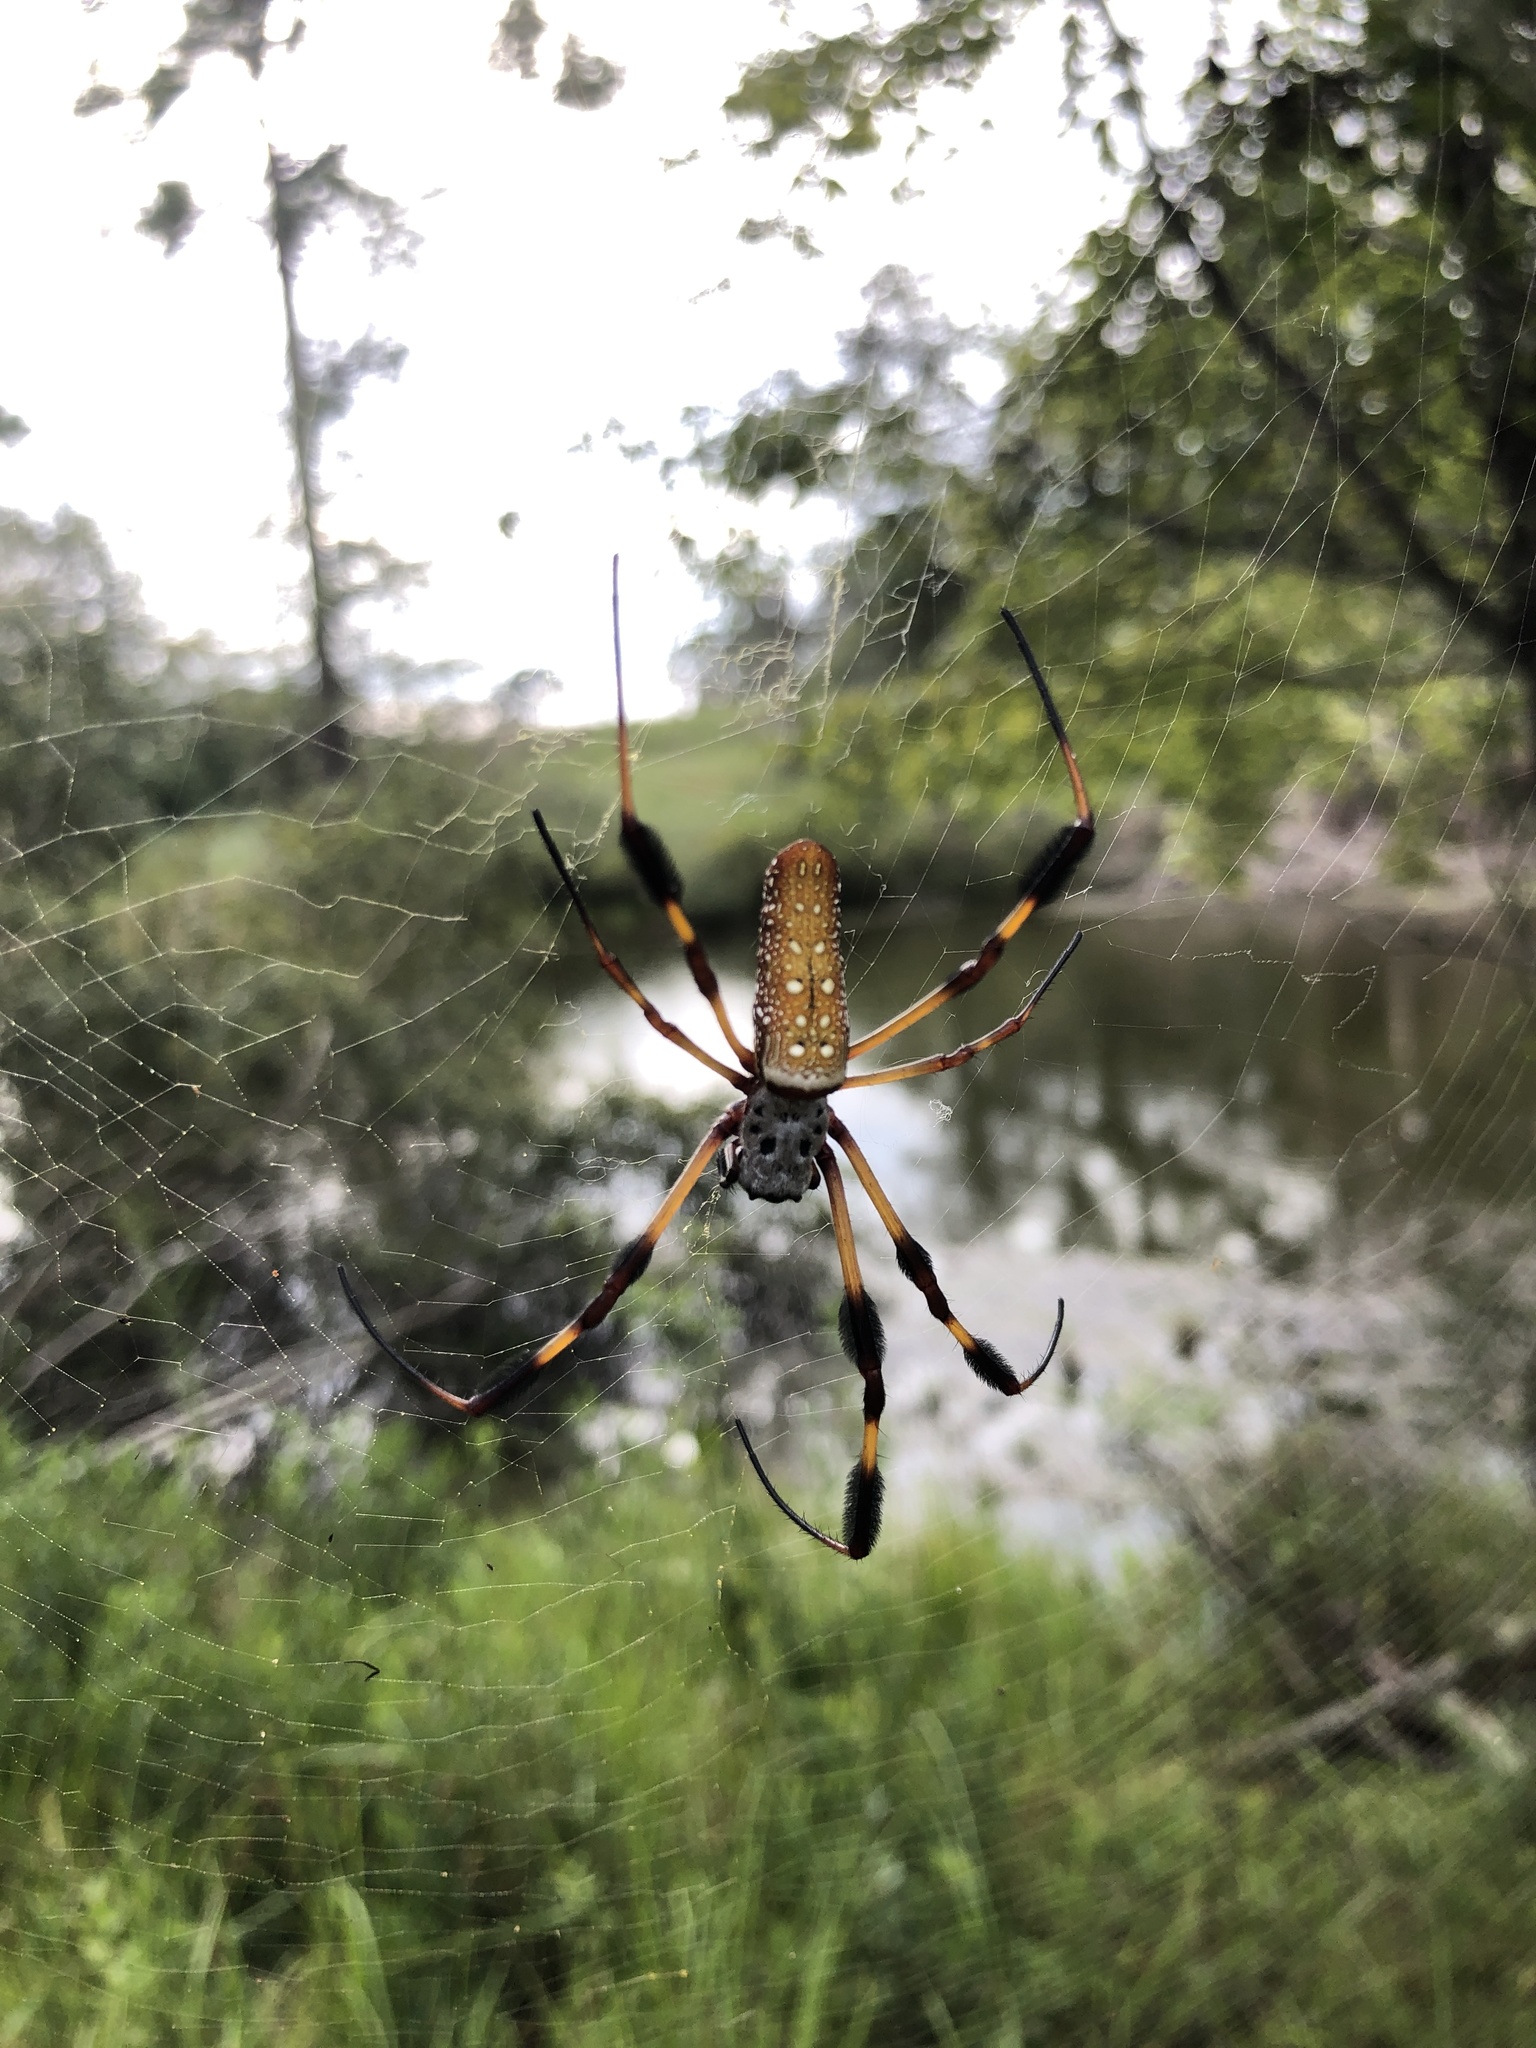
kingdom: Animalia
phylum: Arthropoda
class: Arachnida
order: Araneae
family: Araneidae
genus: Trichonephila
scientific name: Trichonephila clavipes
